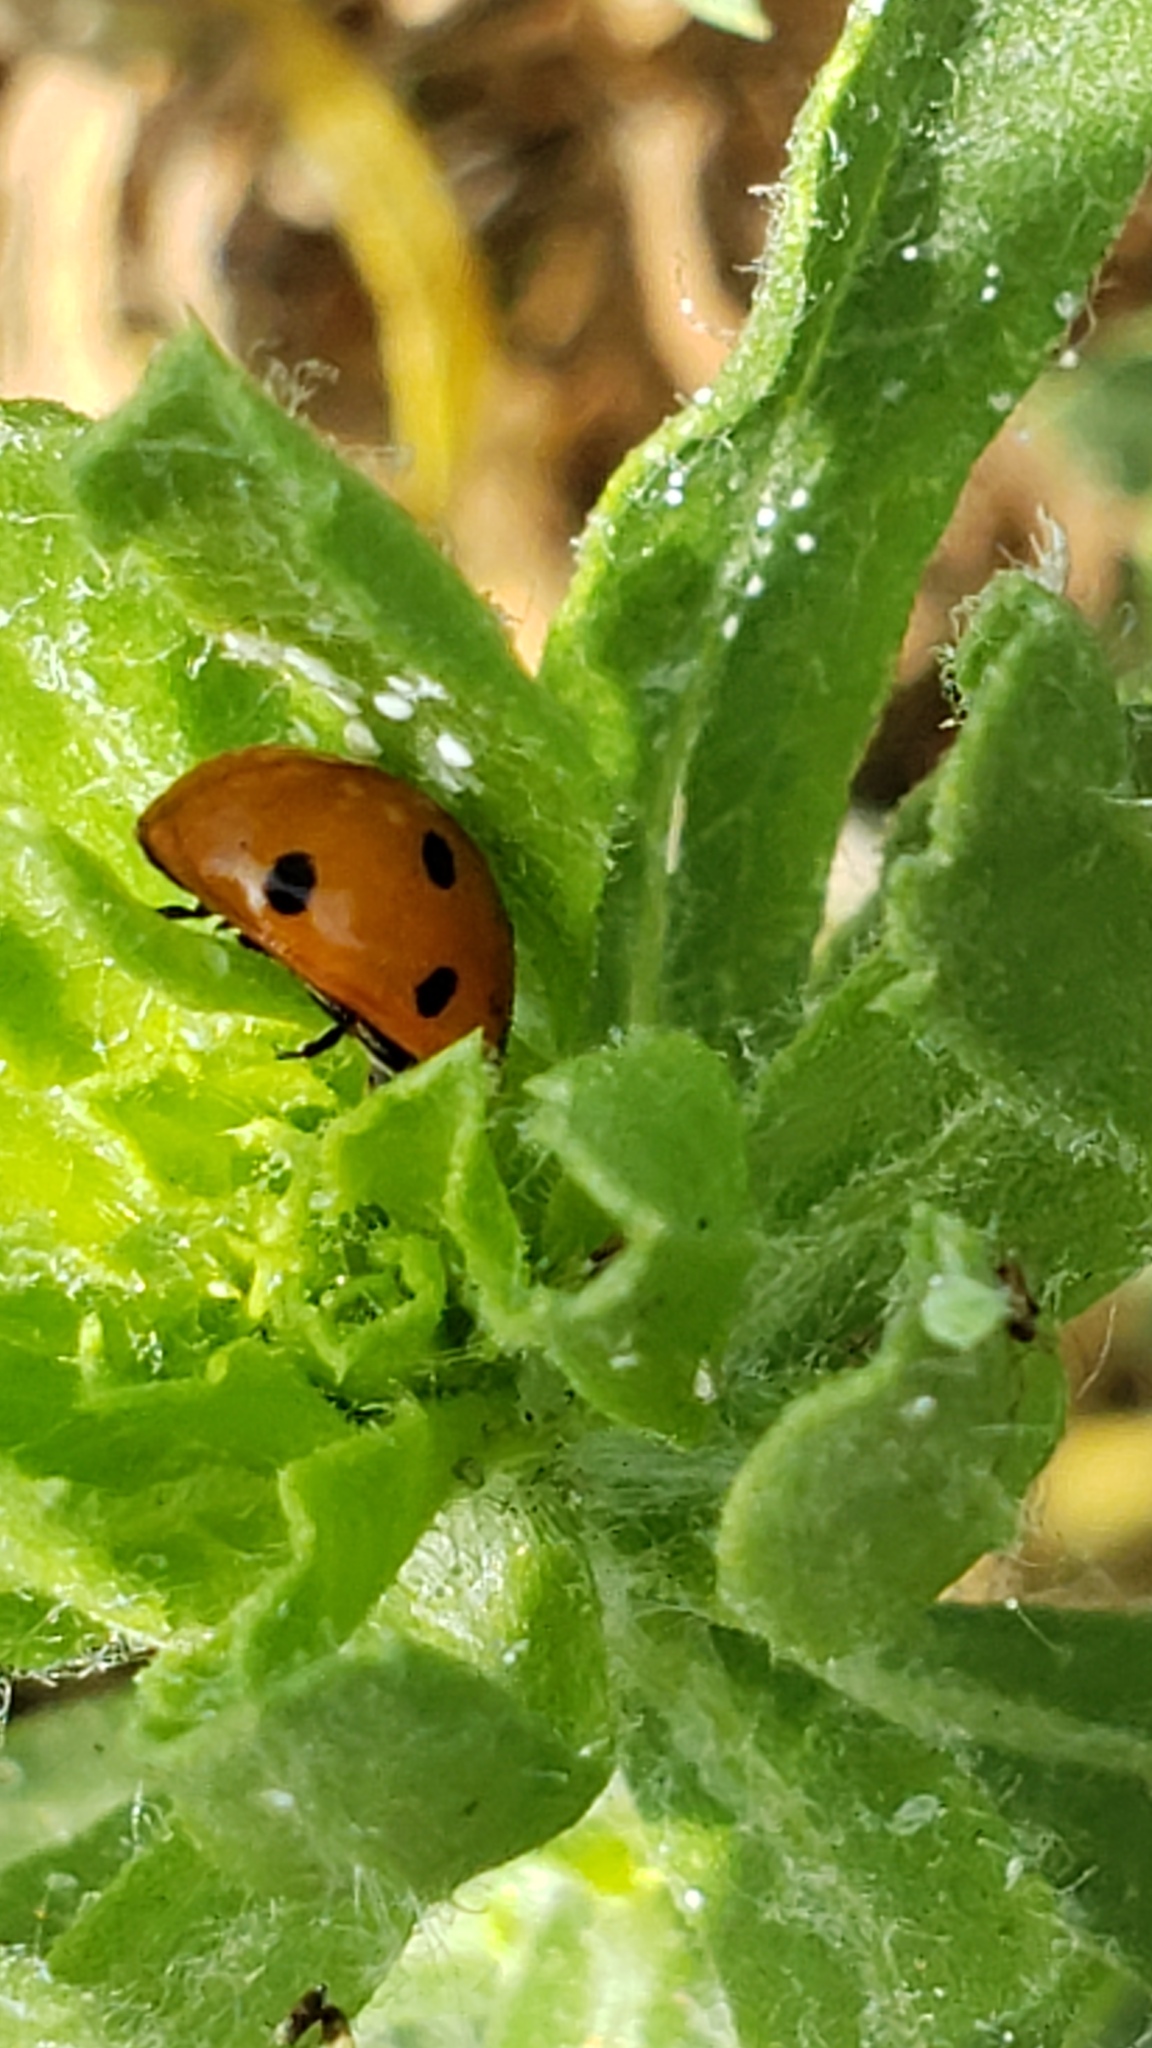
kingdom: Animalia
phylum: Arthropoda
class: Insecta
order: Coleoptera
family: Coccinellidae
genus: Coccinella
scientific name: Coccinella septempunctata
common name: Sevenspotted lady beetle
